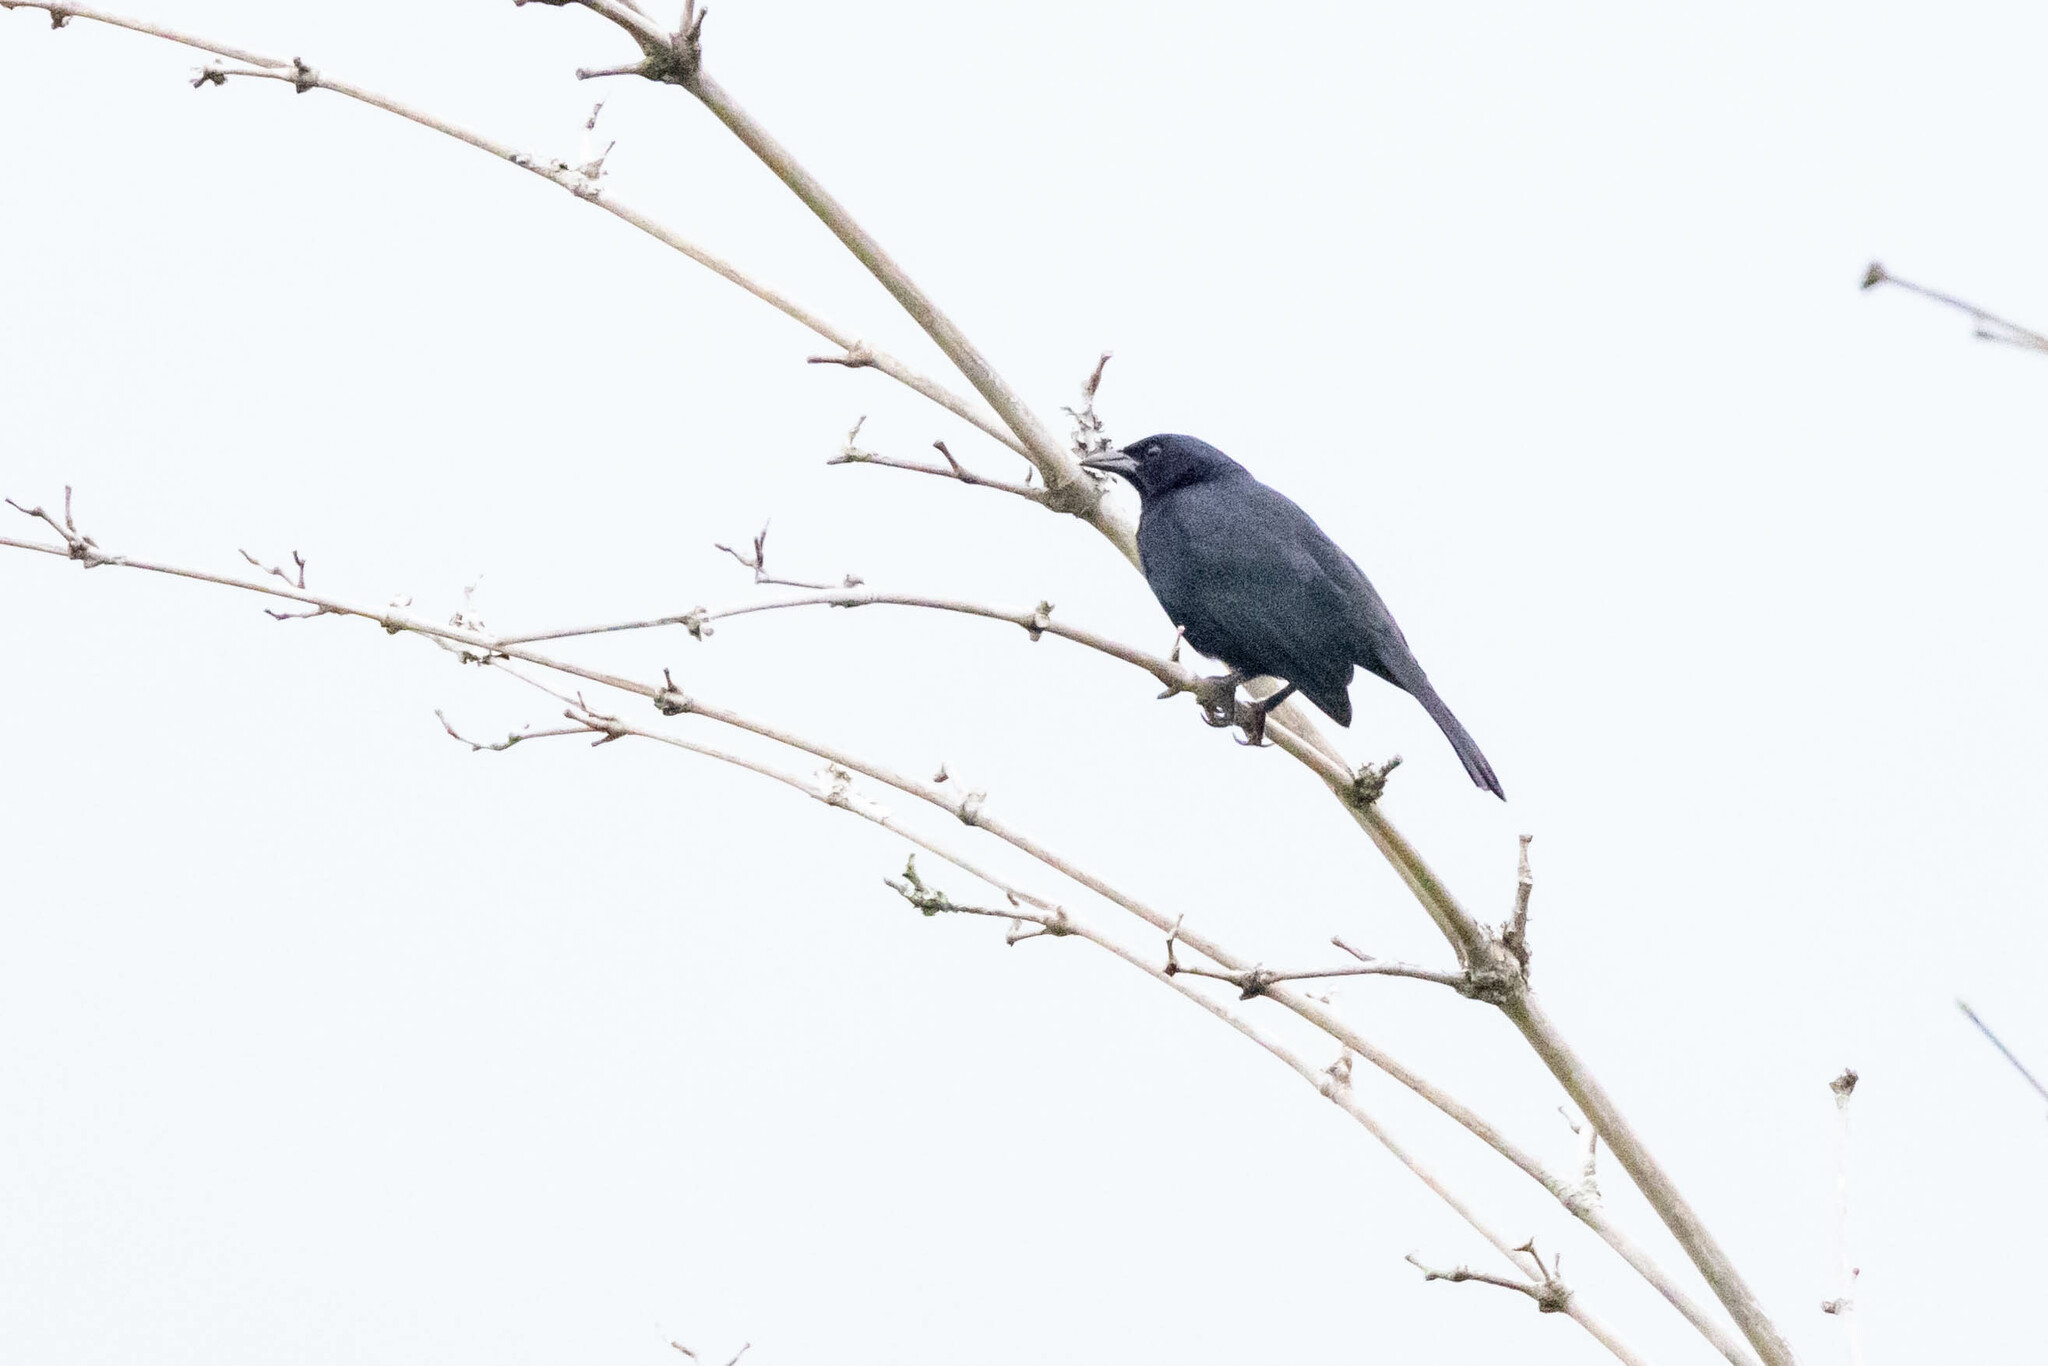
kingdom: Animalia
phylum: Chordata
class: Aves
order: Passeriformes
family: Icteridae
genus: Dives
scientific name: Dives warczewiczi
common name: Scrub blackbird
